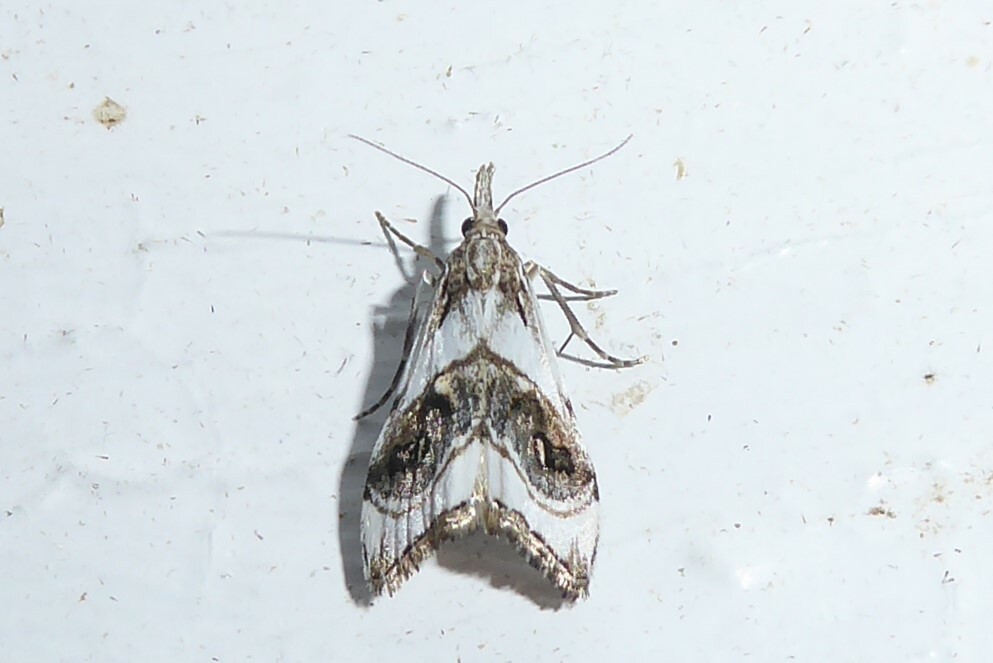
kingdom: Animalia
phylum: Arthropoda
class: Insecta
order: Lepidoptera
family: Crambidae
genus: Gadira
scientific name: Gadira acerella
